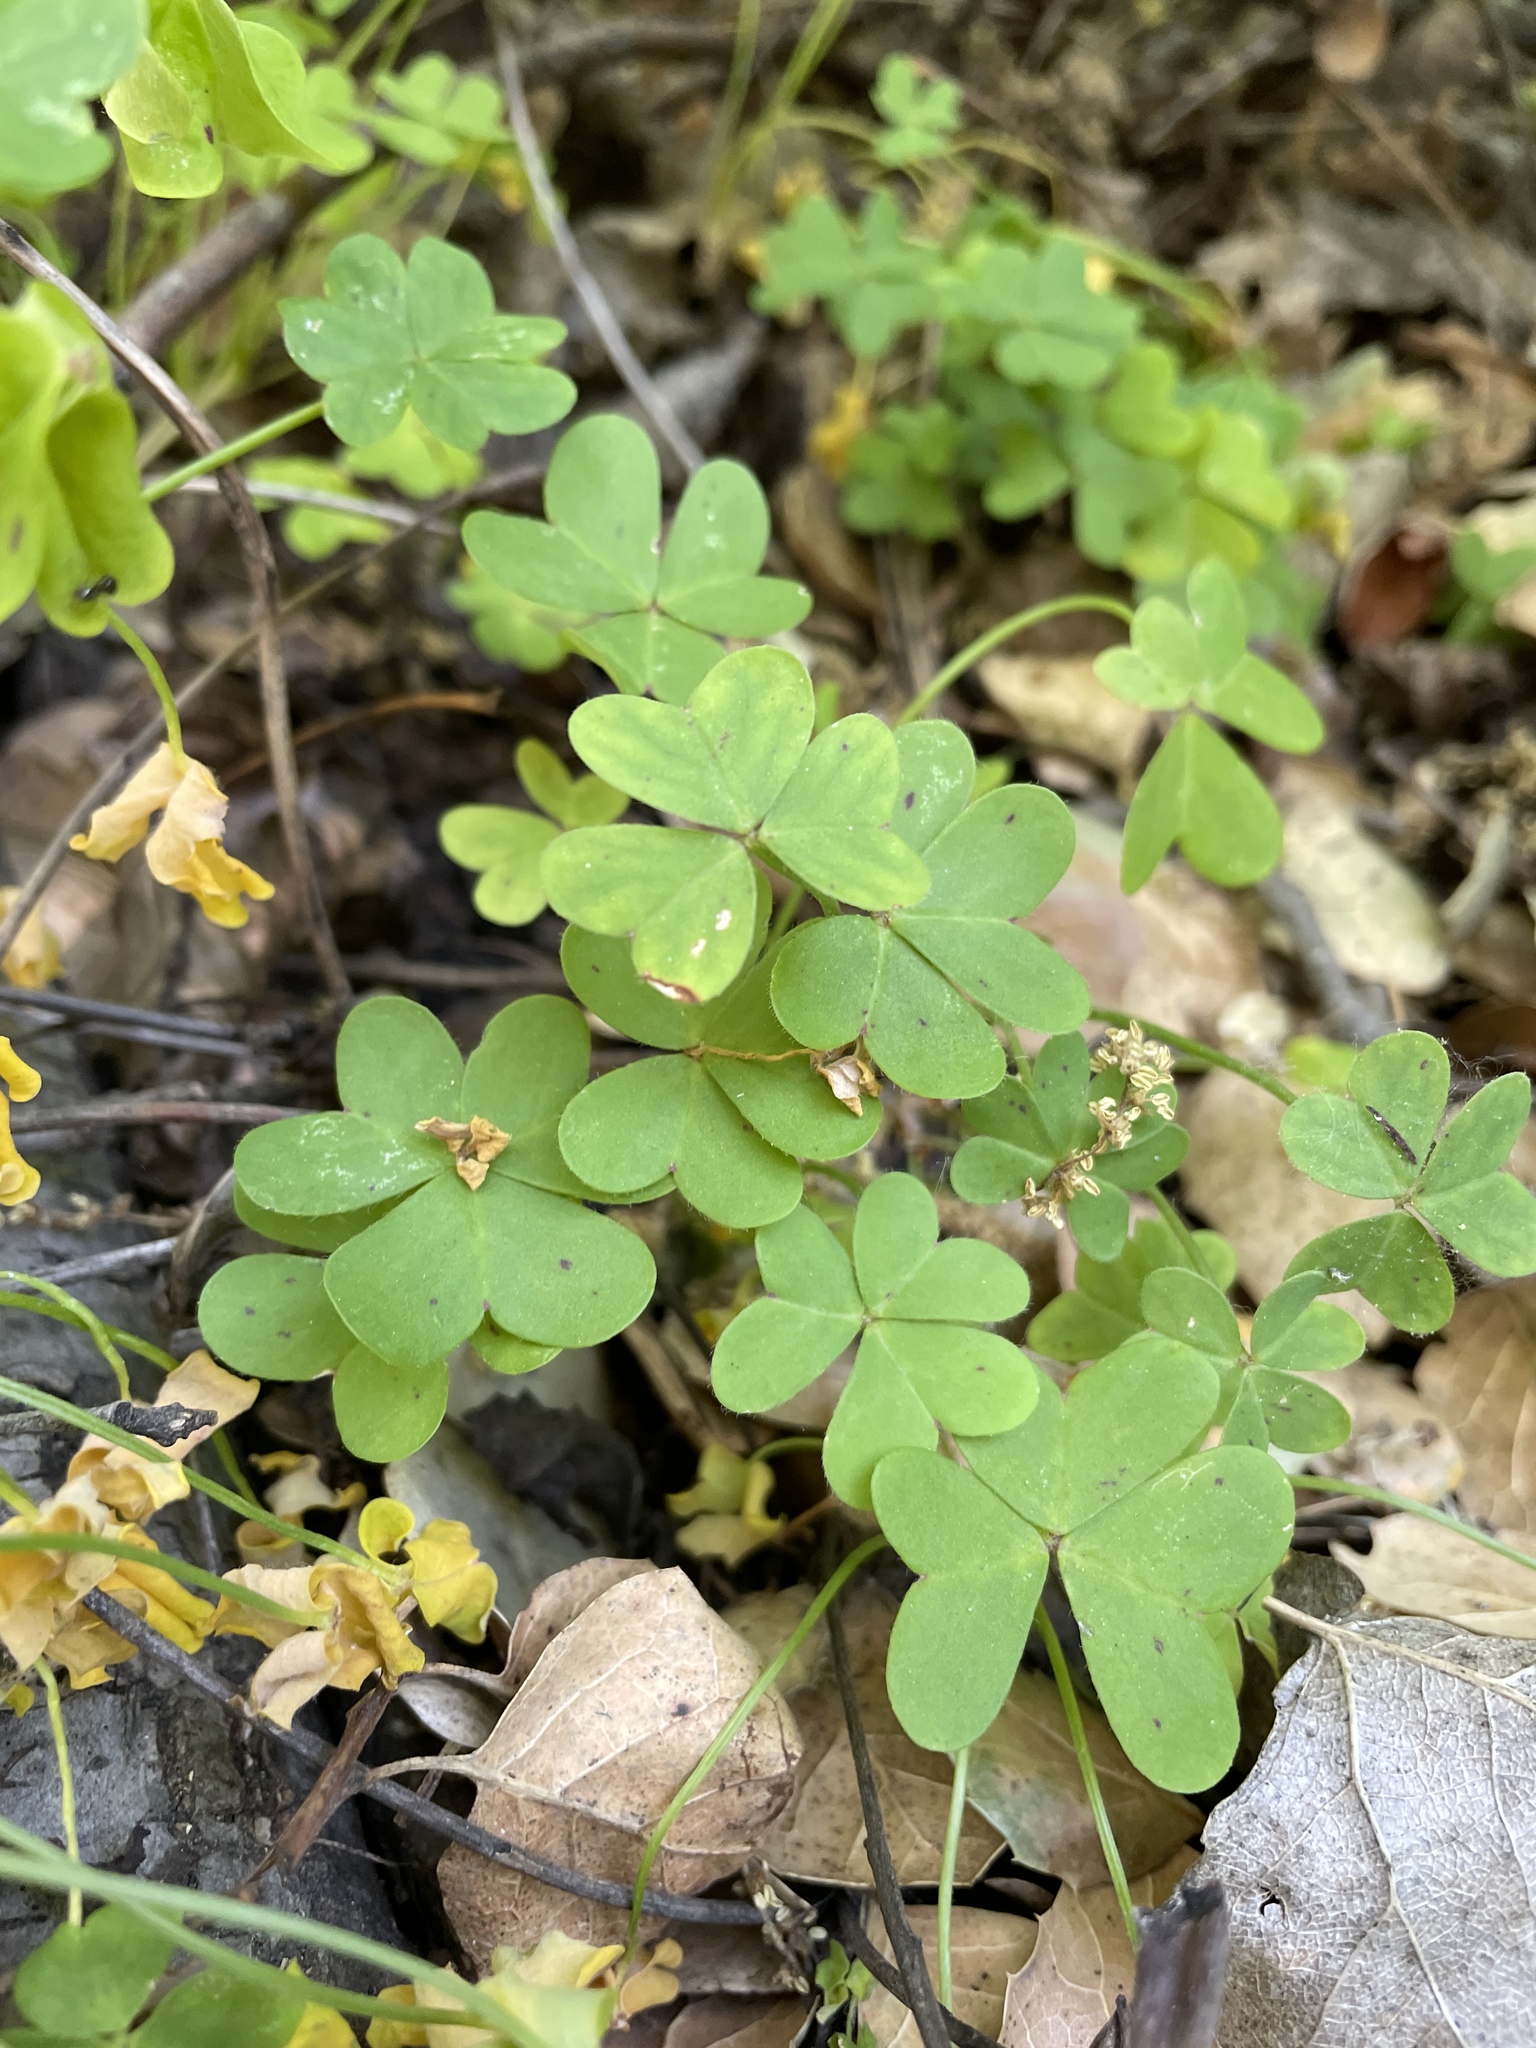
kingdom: Plantae
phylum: Tracheophyta
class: Magnoliopsida
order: Oxalidales
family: Oxalidaceae
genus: Oxalis
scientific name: Oxalis pes-caprae
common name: Bermuda-buttercup
